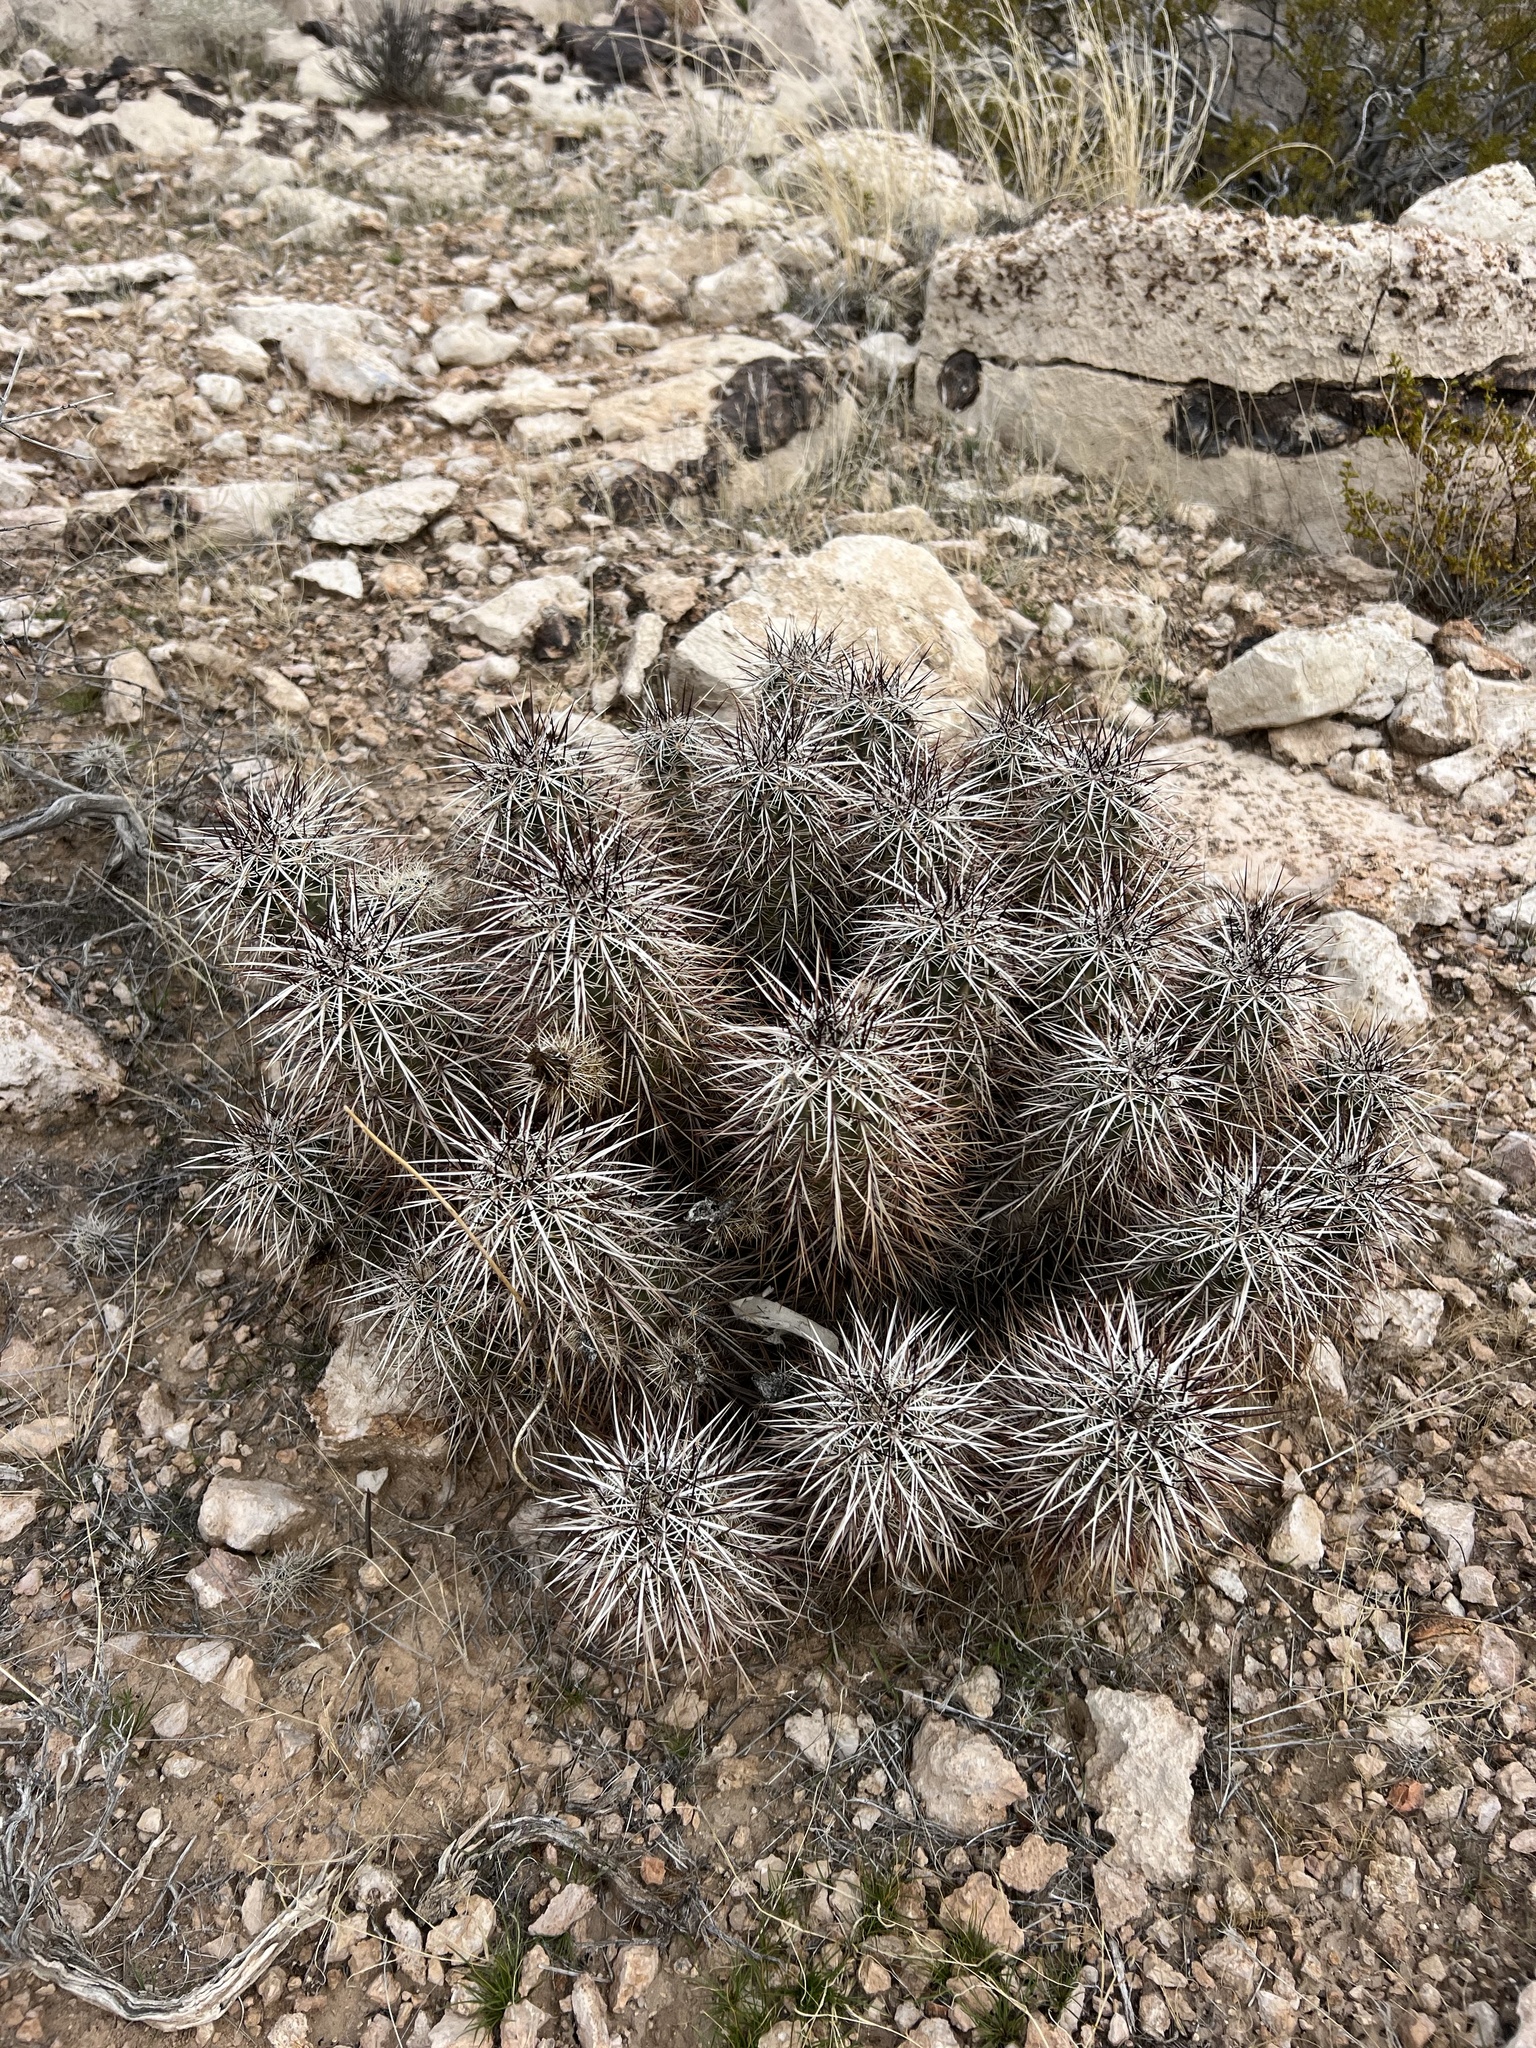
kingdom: Plantae
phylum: Tracheophyta
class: Magnoliopsida
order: Caryophyllales
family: Cactaceae
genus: Echinocereus
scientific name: Echinocereus engelmannii
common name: Engelmann's hedgehog cactus
